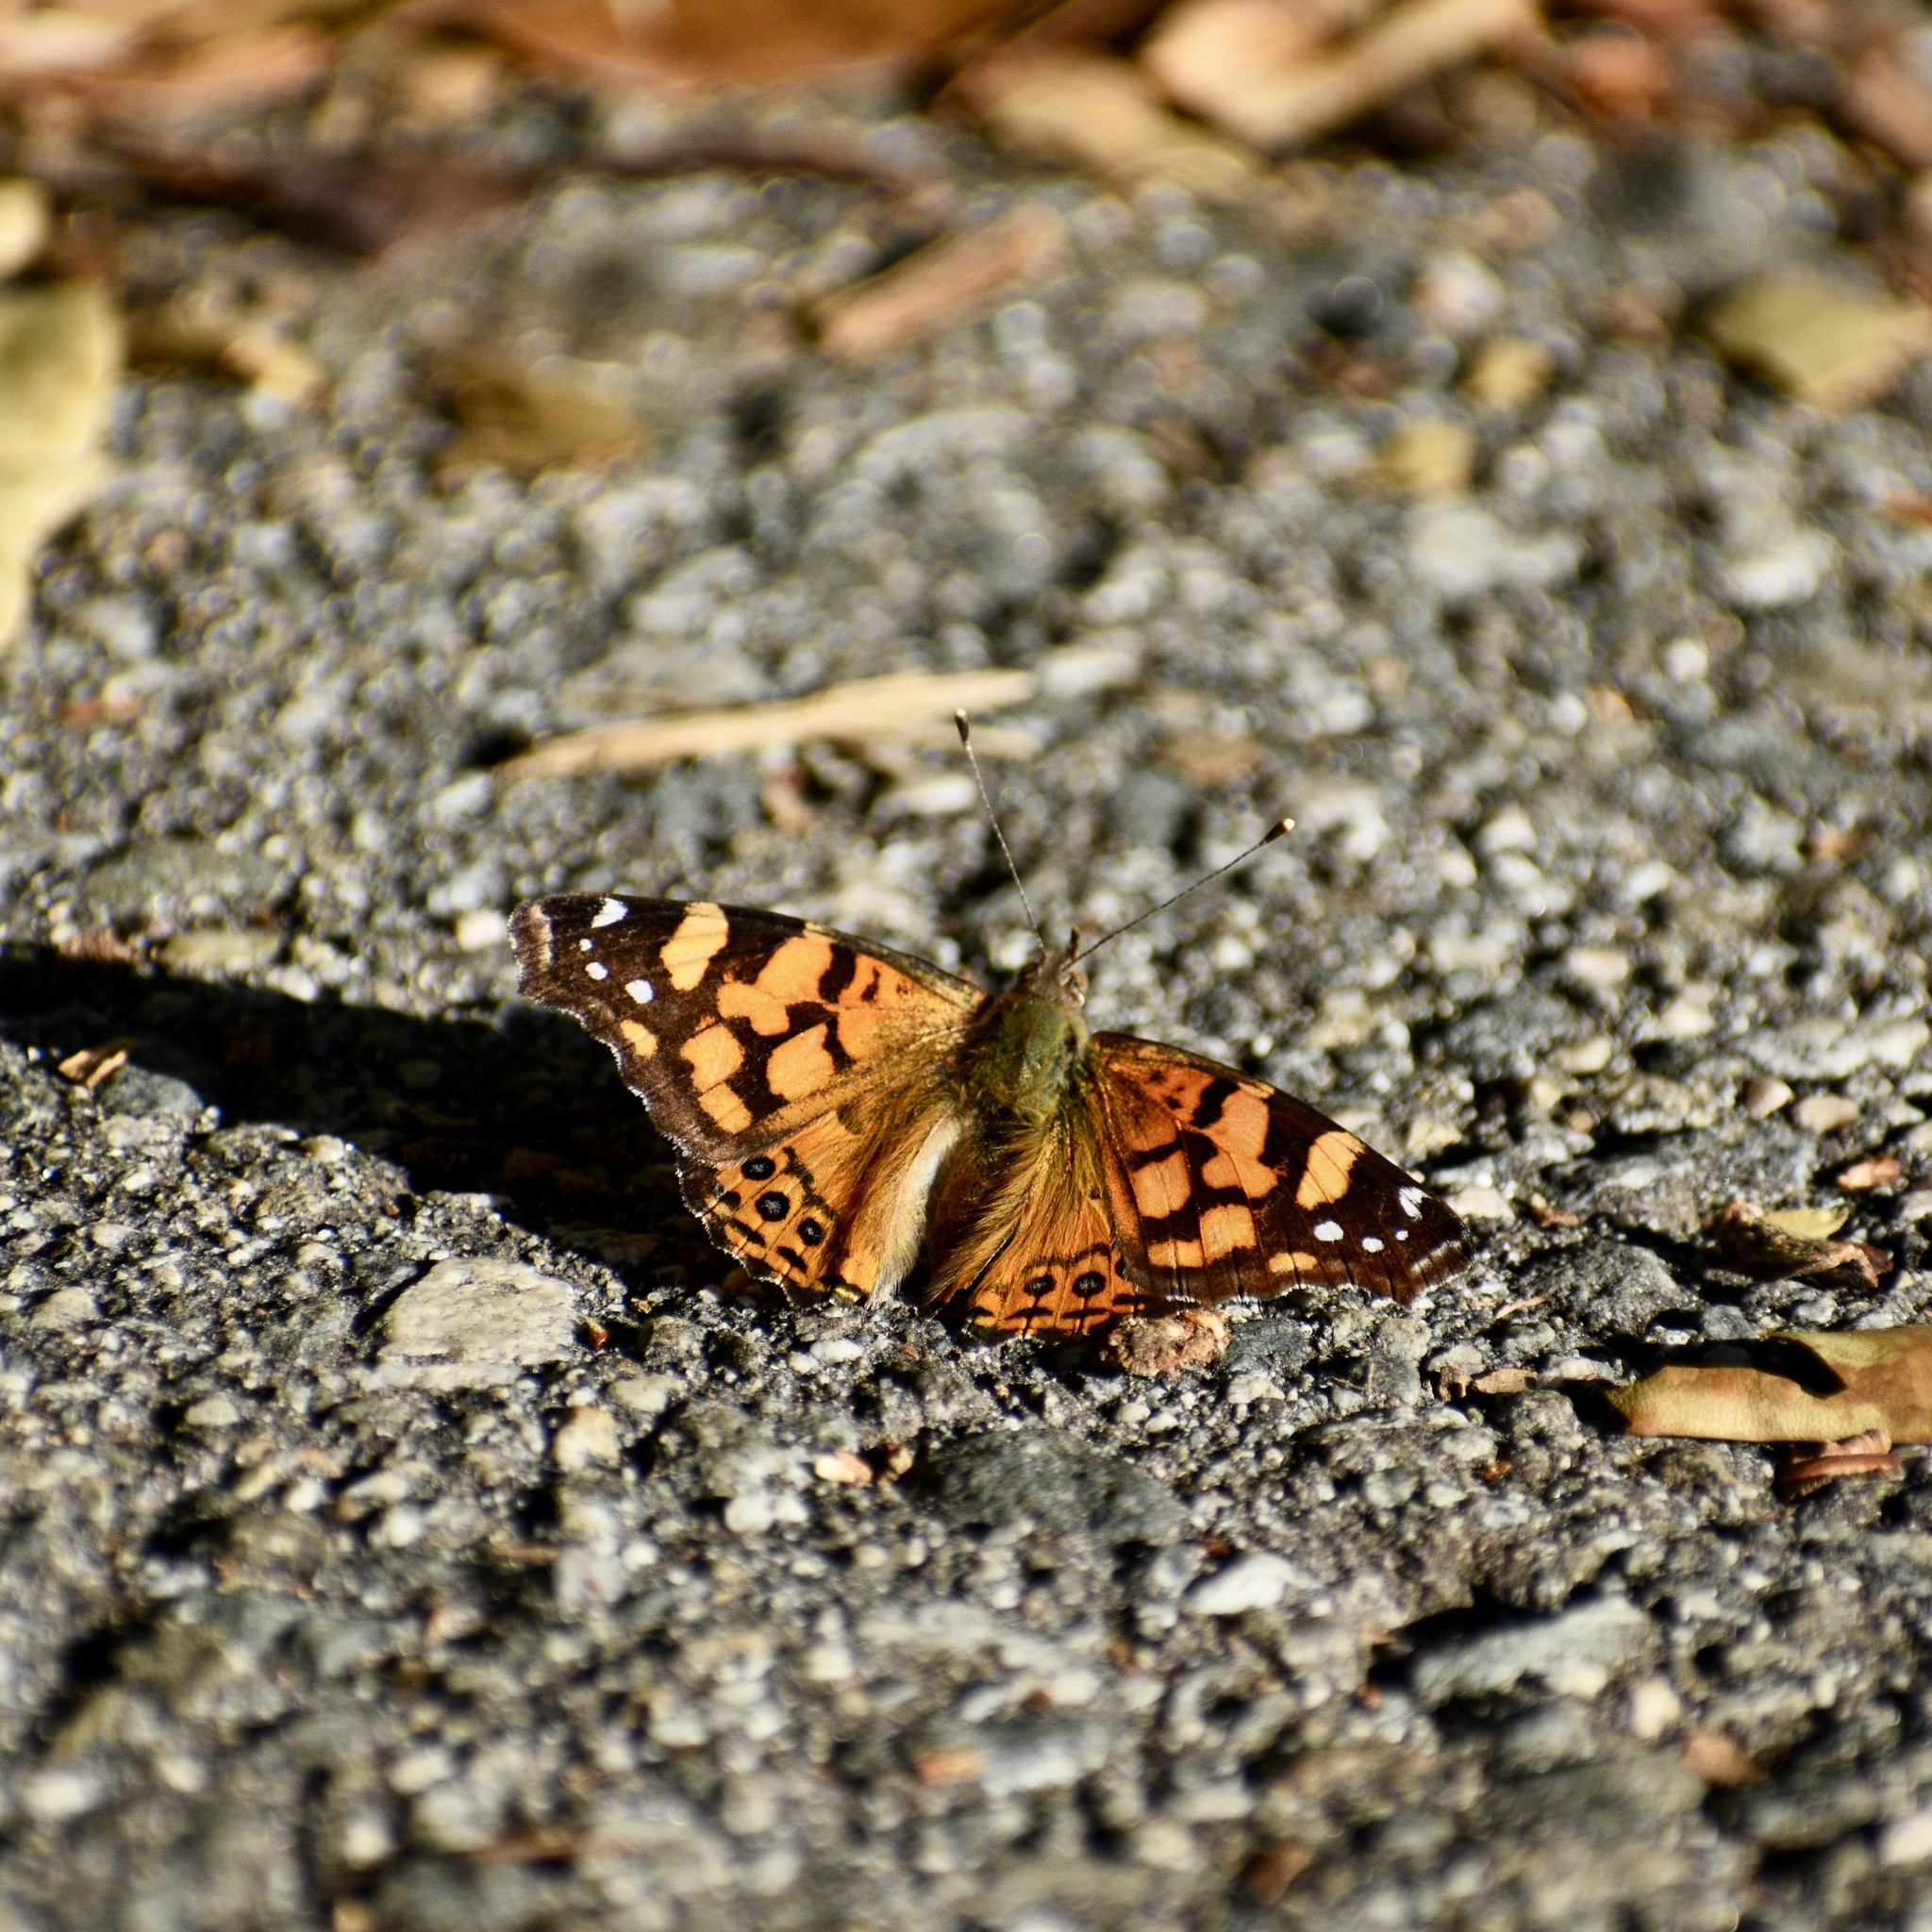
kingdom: Animalia
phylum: Arthropoda
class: Insecta
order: Lepidoptera
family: Nymphalidae
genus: Vanessa
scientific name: Vanessa annabella
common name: West coast lady
